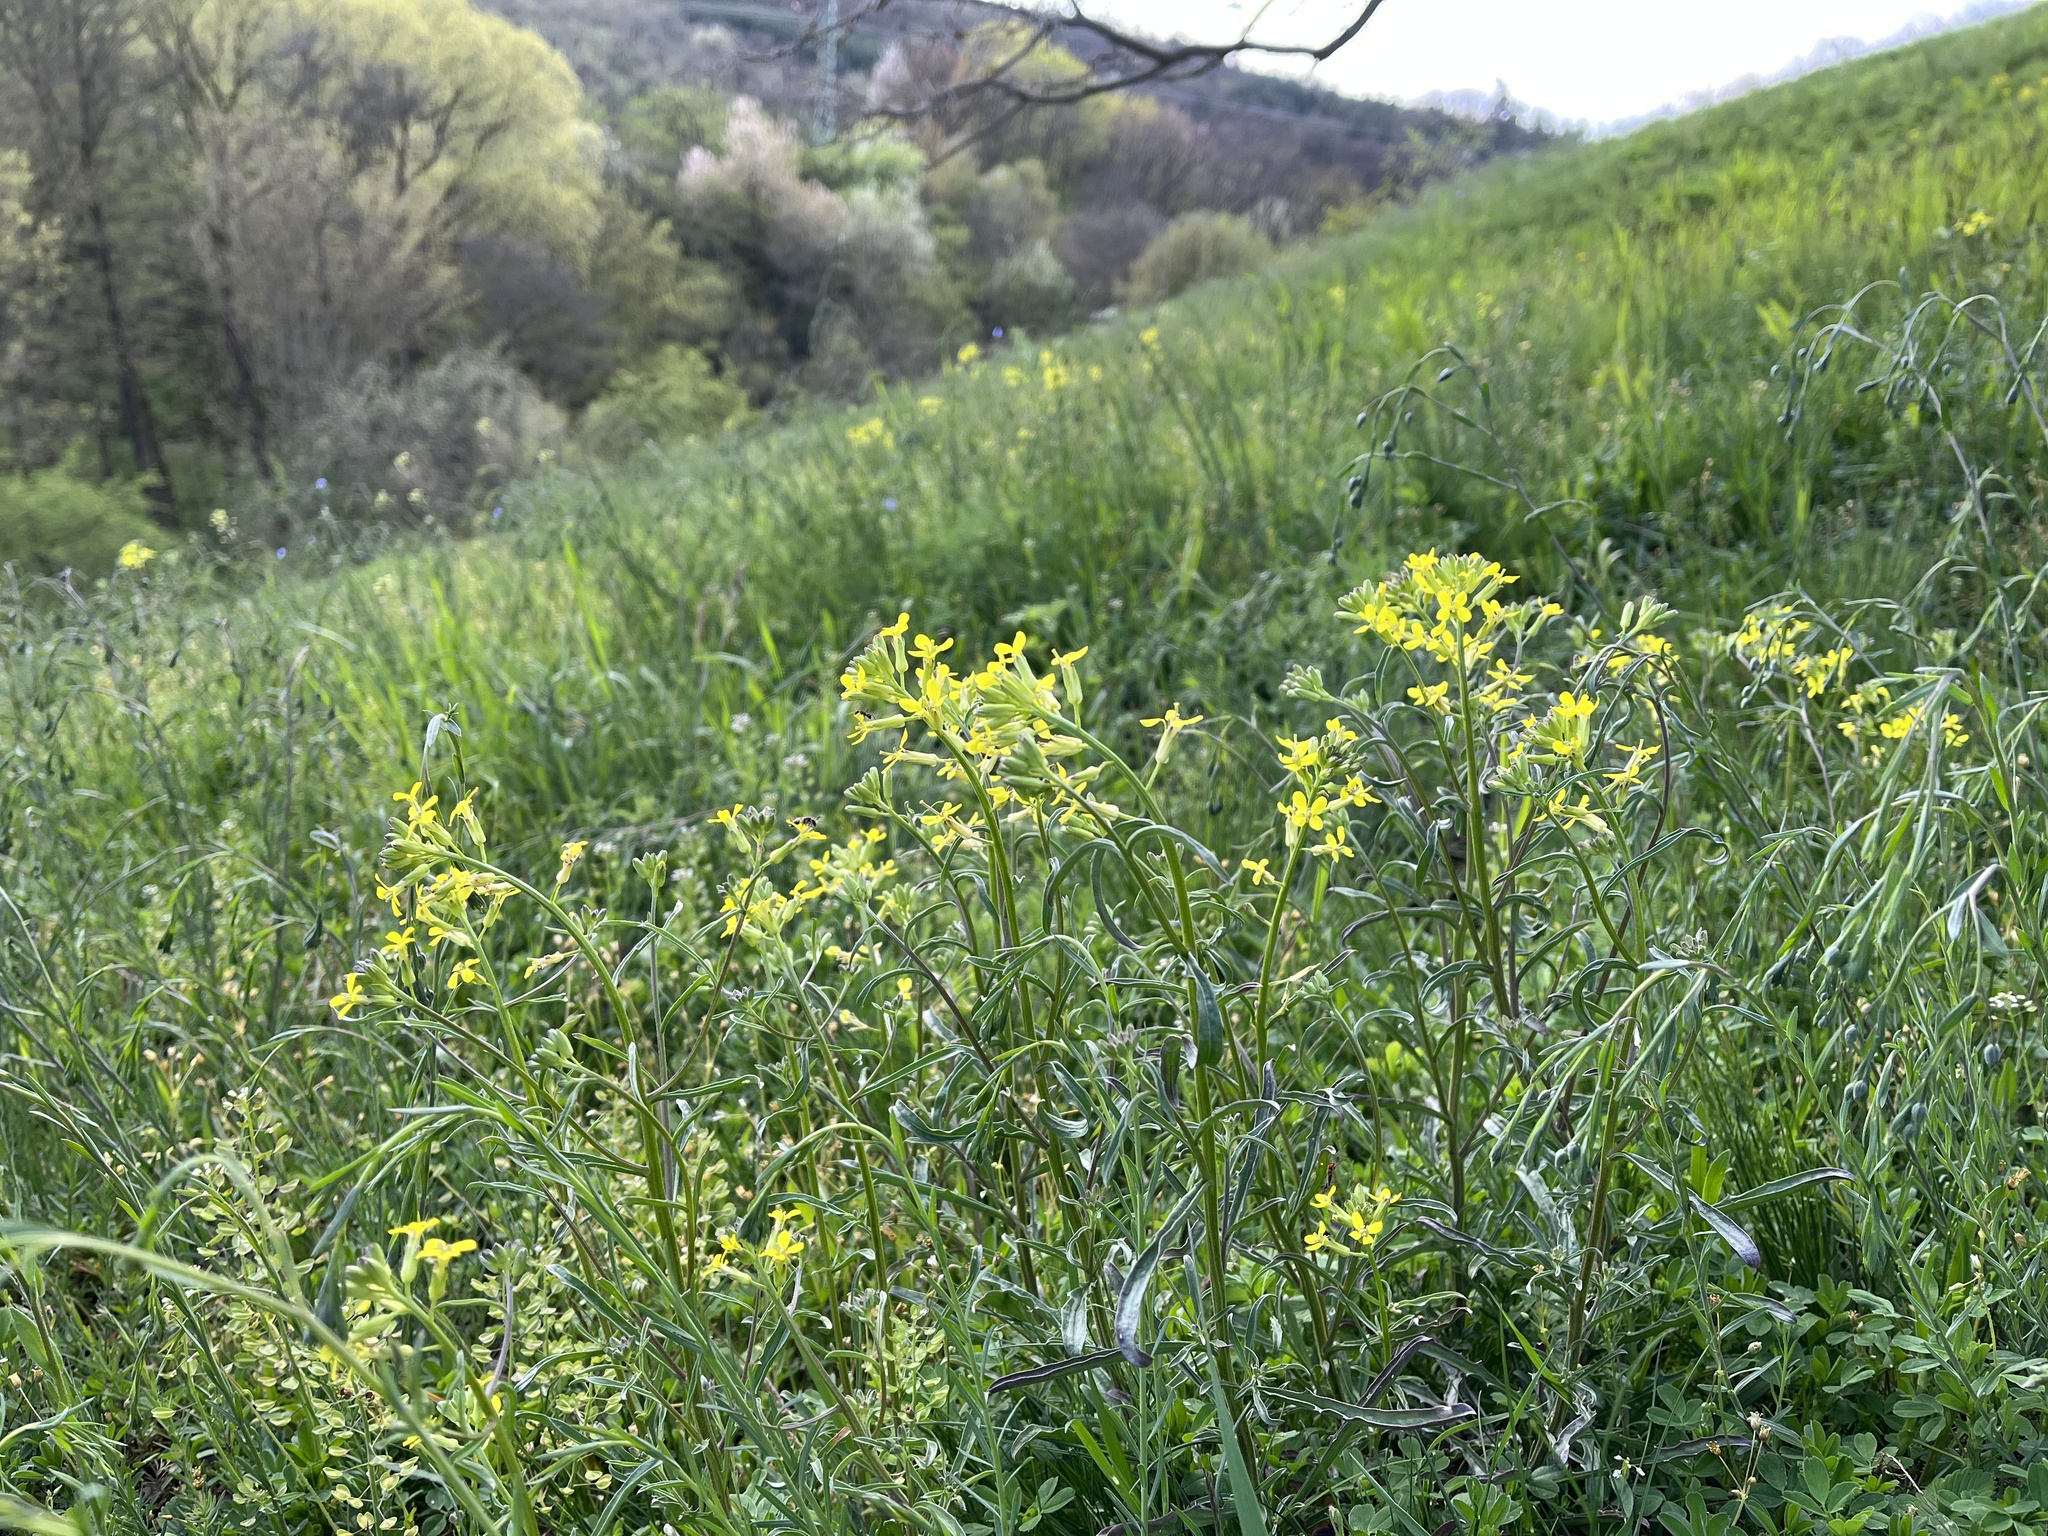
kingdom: Plantae
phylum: Tracheophyta
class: Magnoliopsida
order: Brassicales
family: Brassicaceae
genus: Erysimum
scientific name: Erysimum crepidifolium
